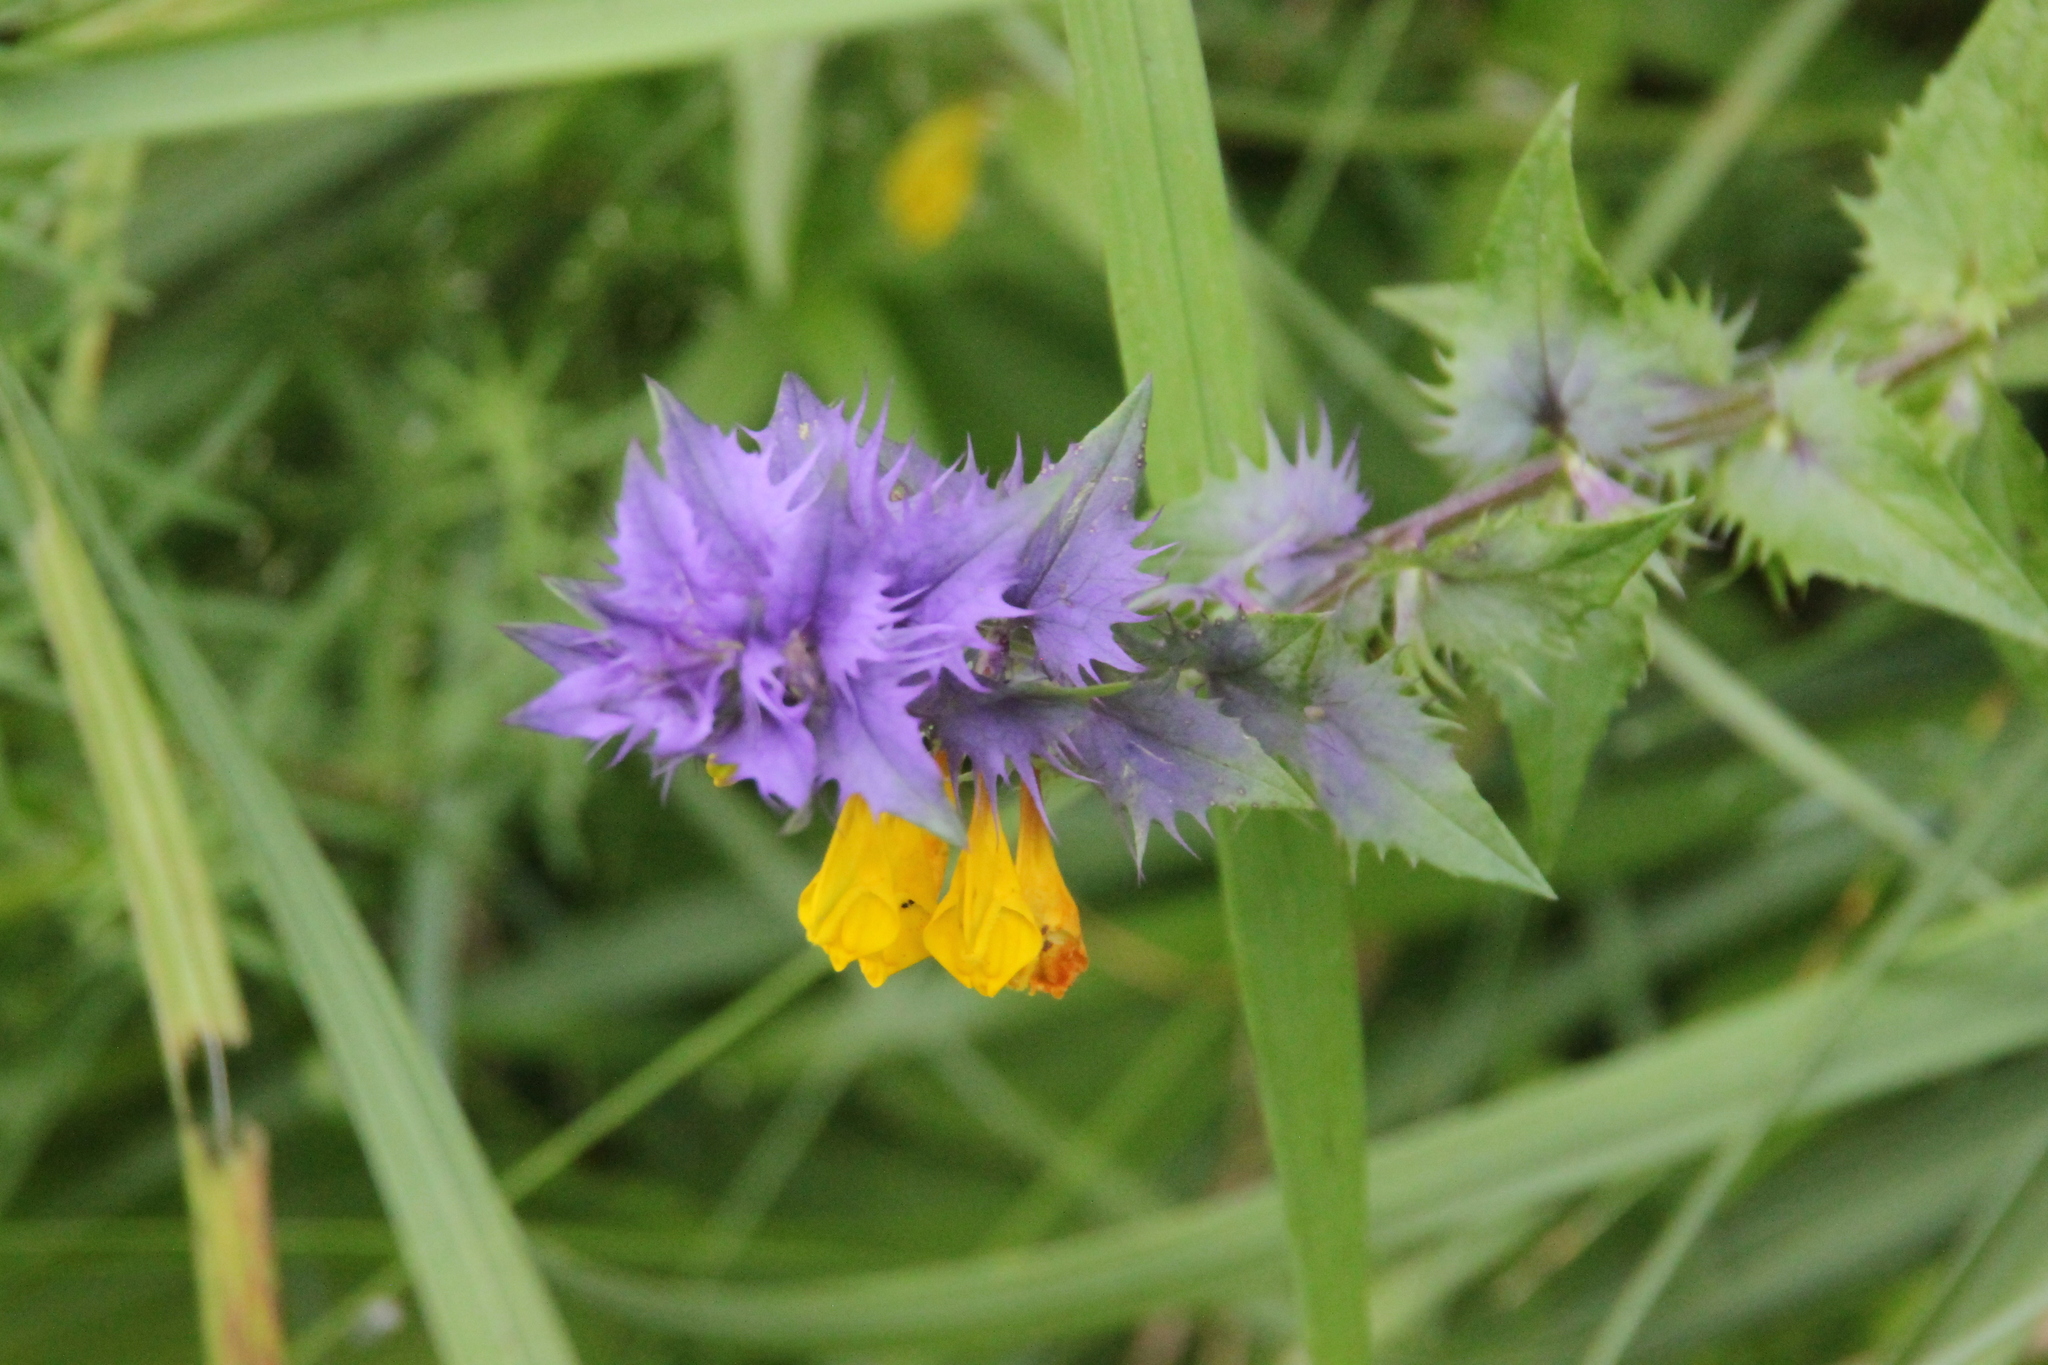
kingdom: Plantae
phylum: Tracheophyta
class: Magnoliopsida
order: Lamiales
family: Orobanchaceae
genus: Melampyrum
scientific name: Melampyrum nemorosum
